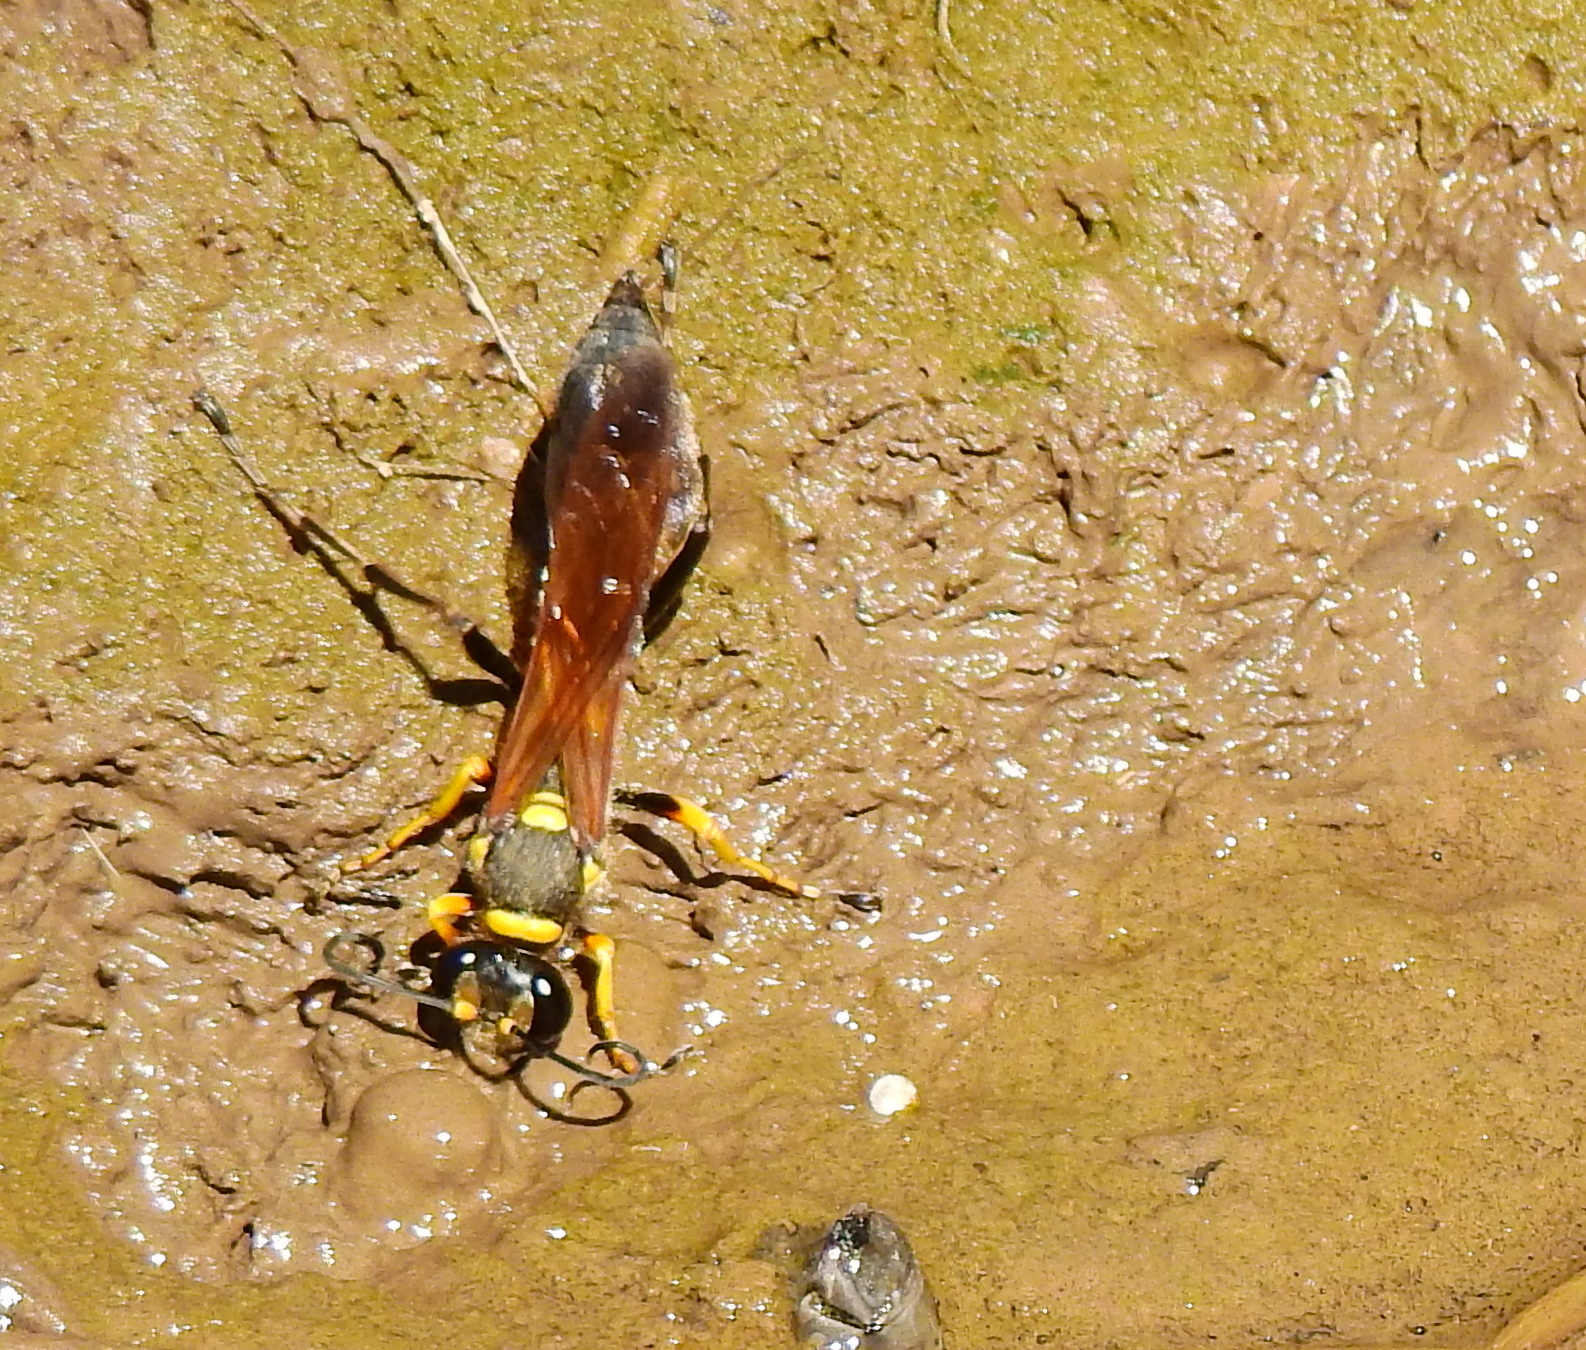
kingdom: Animalia
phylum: Arthropoda
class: Insecta
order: Hymenoptera
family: Sphecidae
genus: Sceliphron
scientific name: Sceliphron asiaticum
